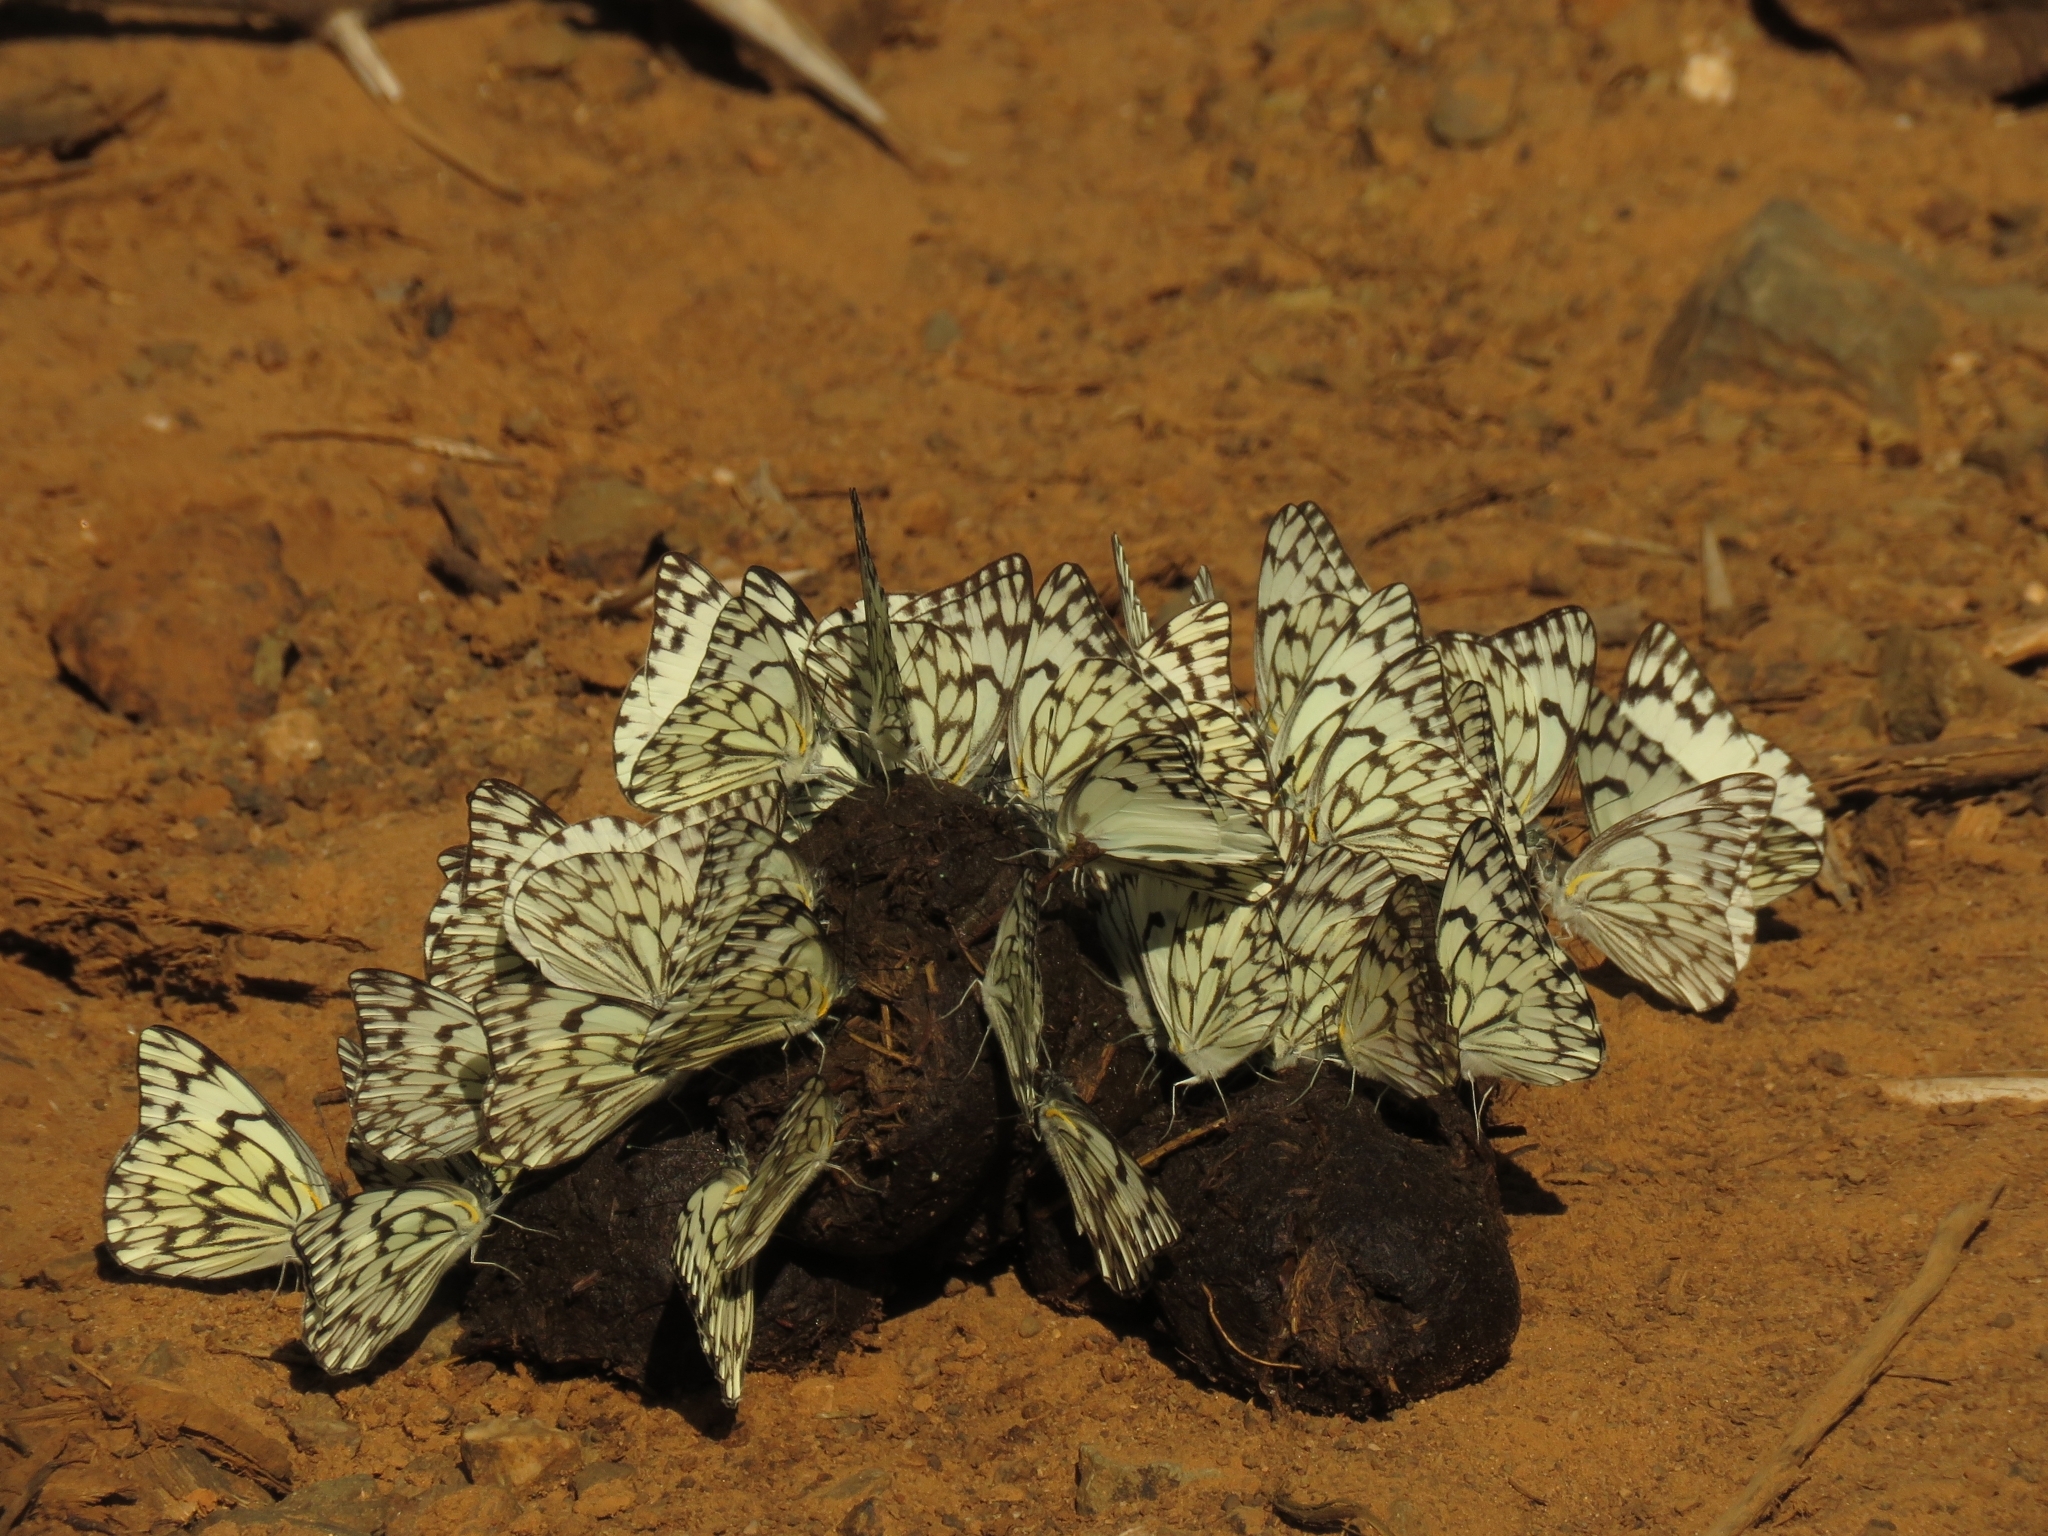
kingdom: Animalia
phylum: Arthropoda
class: Insecta
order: Lepidoptera
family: Pieridae
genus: Belenois
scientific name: Belenois gidica
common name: Pointed caper white
